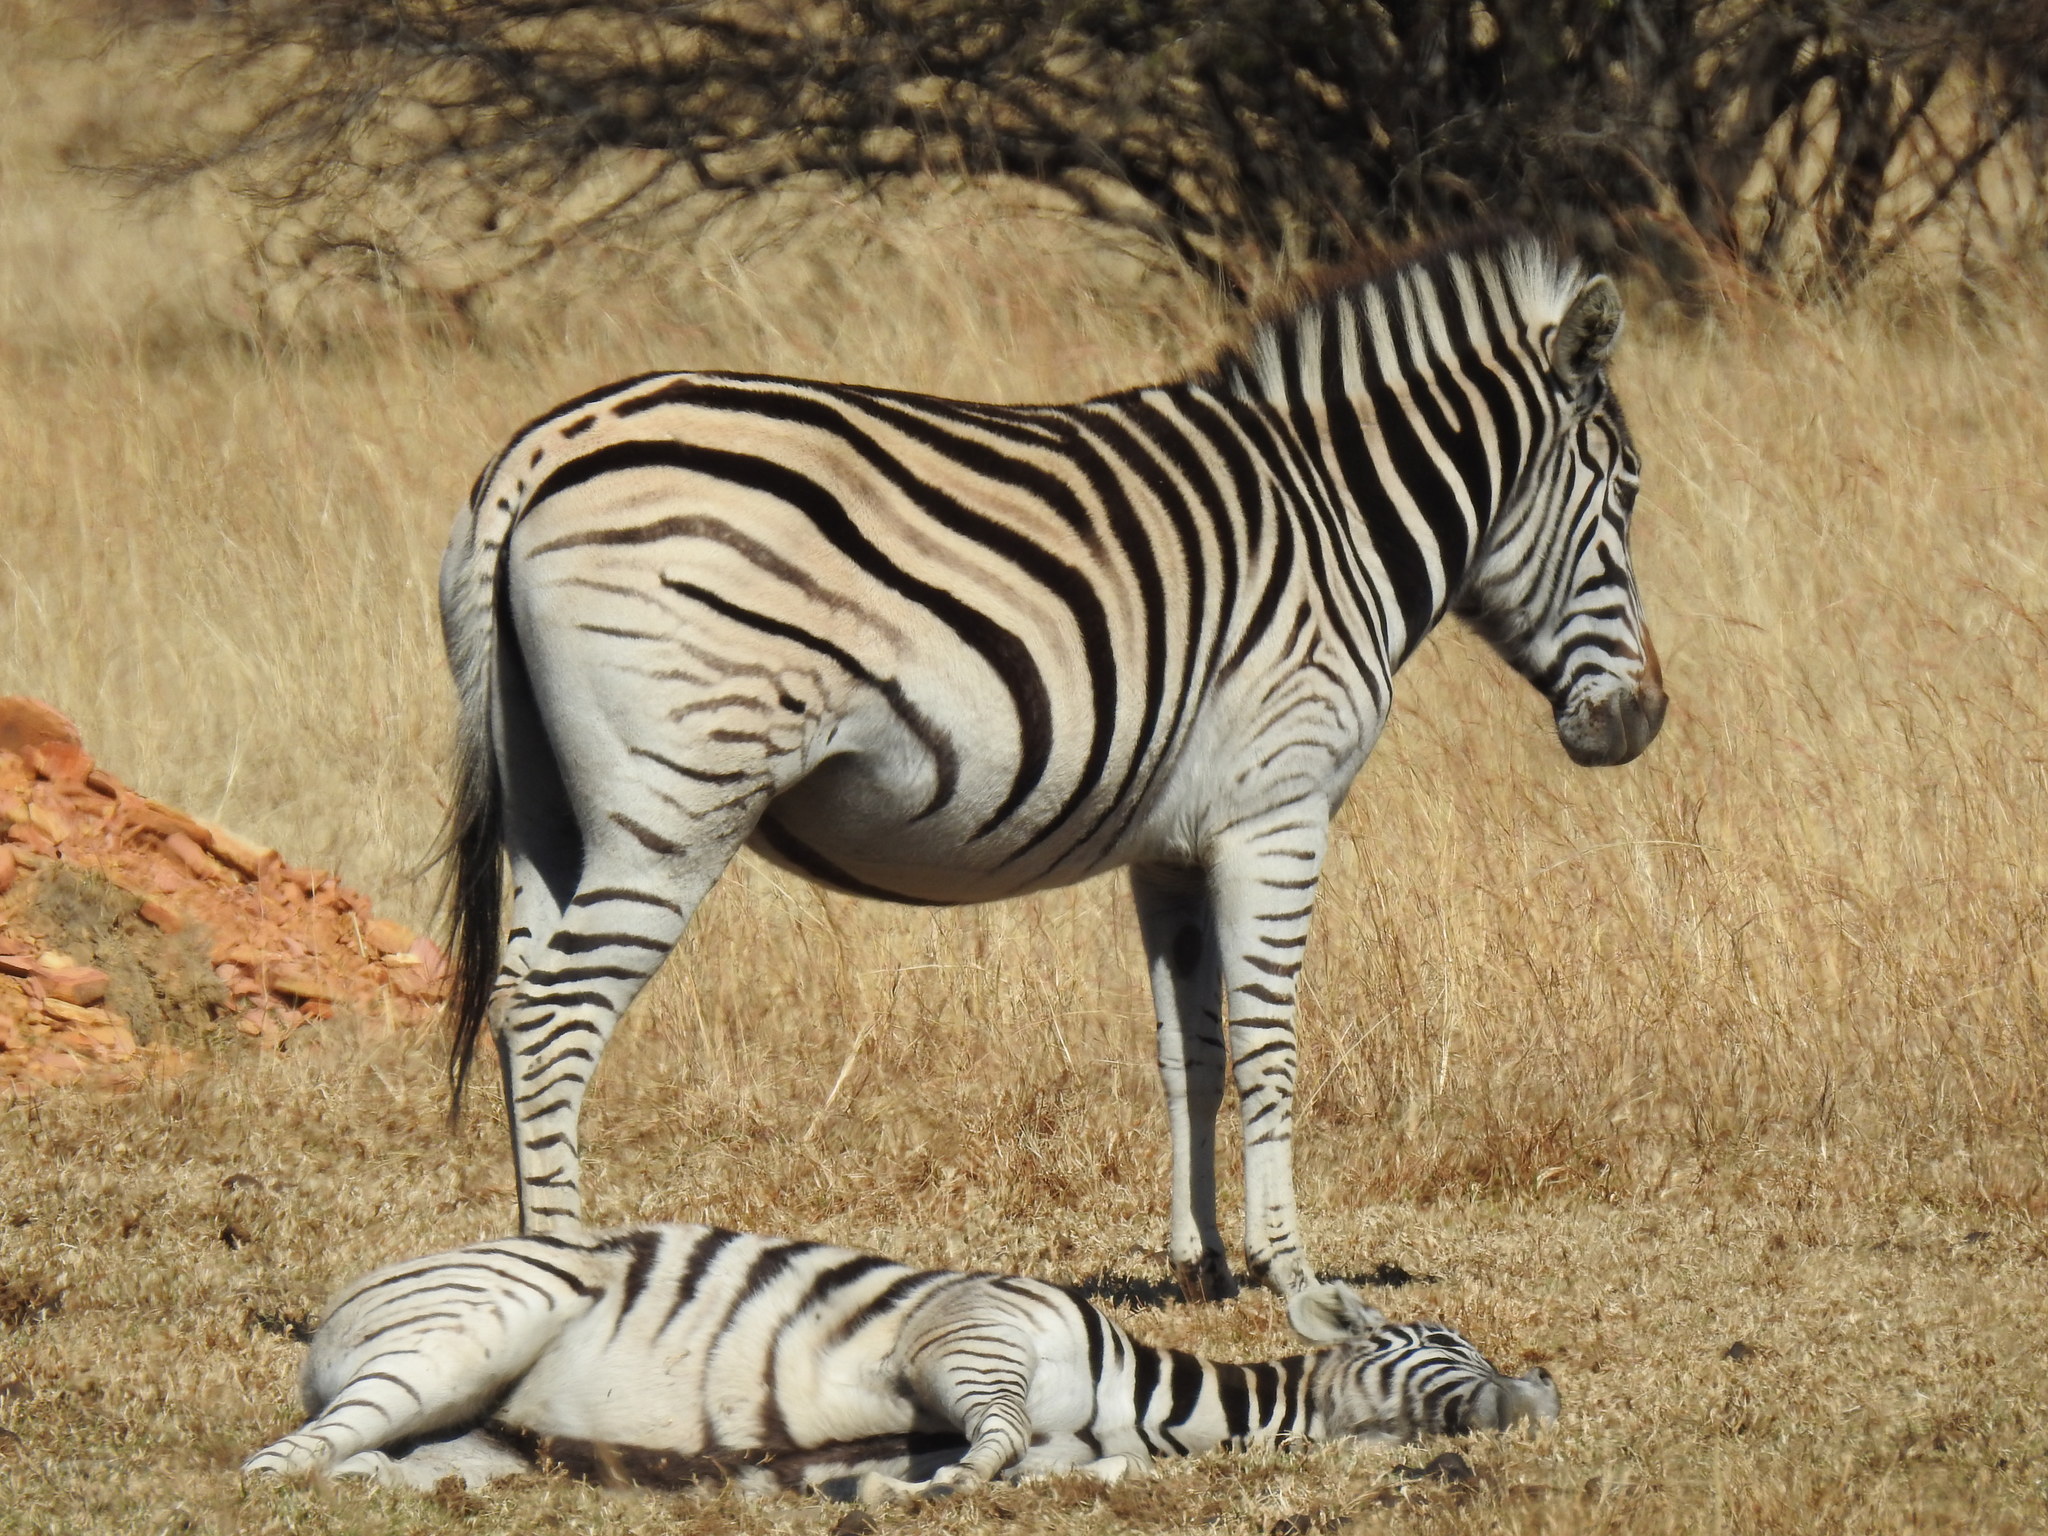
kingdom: Animalia
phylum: Chordata
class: Mammalia
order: Perissodactyla
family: Equidae
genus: Equus
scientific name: Equus quagga
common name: Plains zebra
